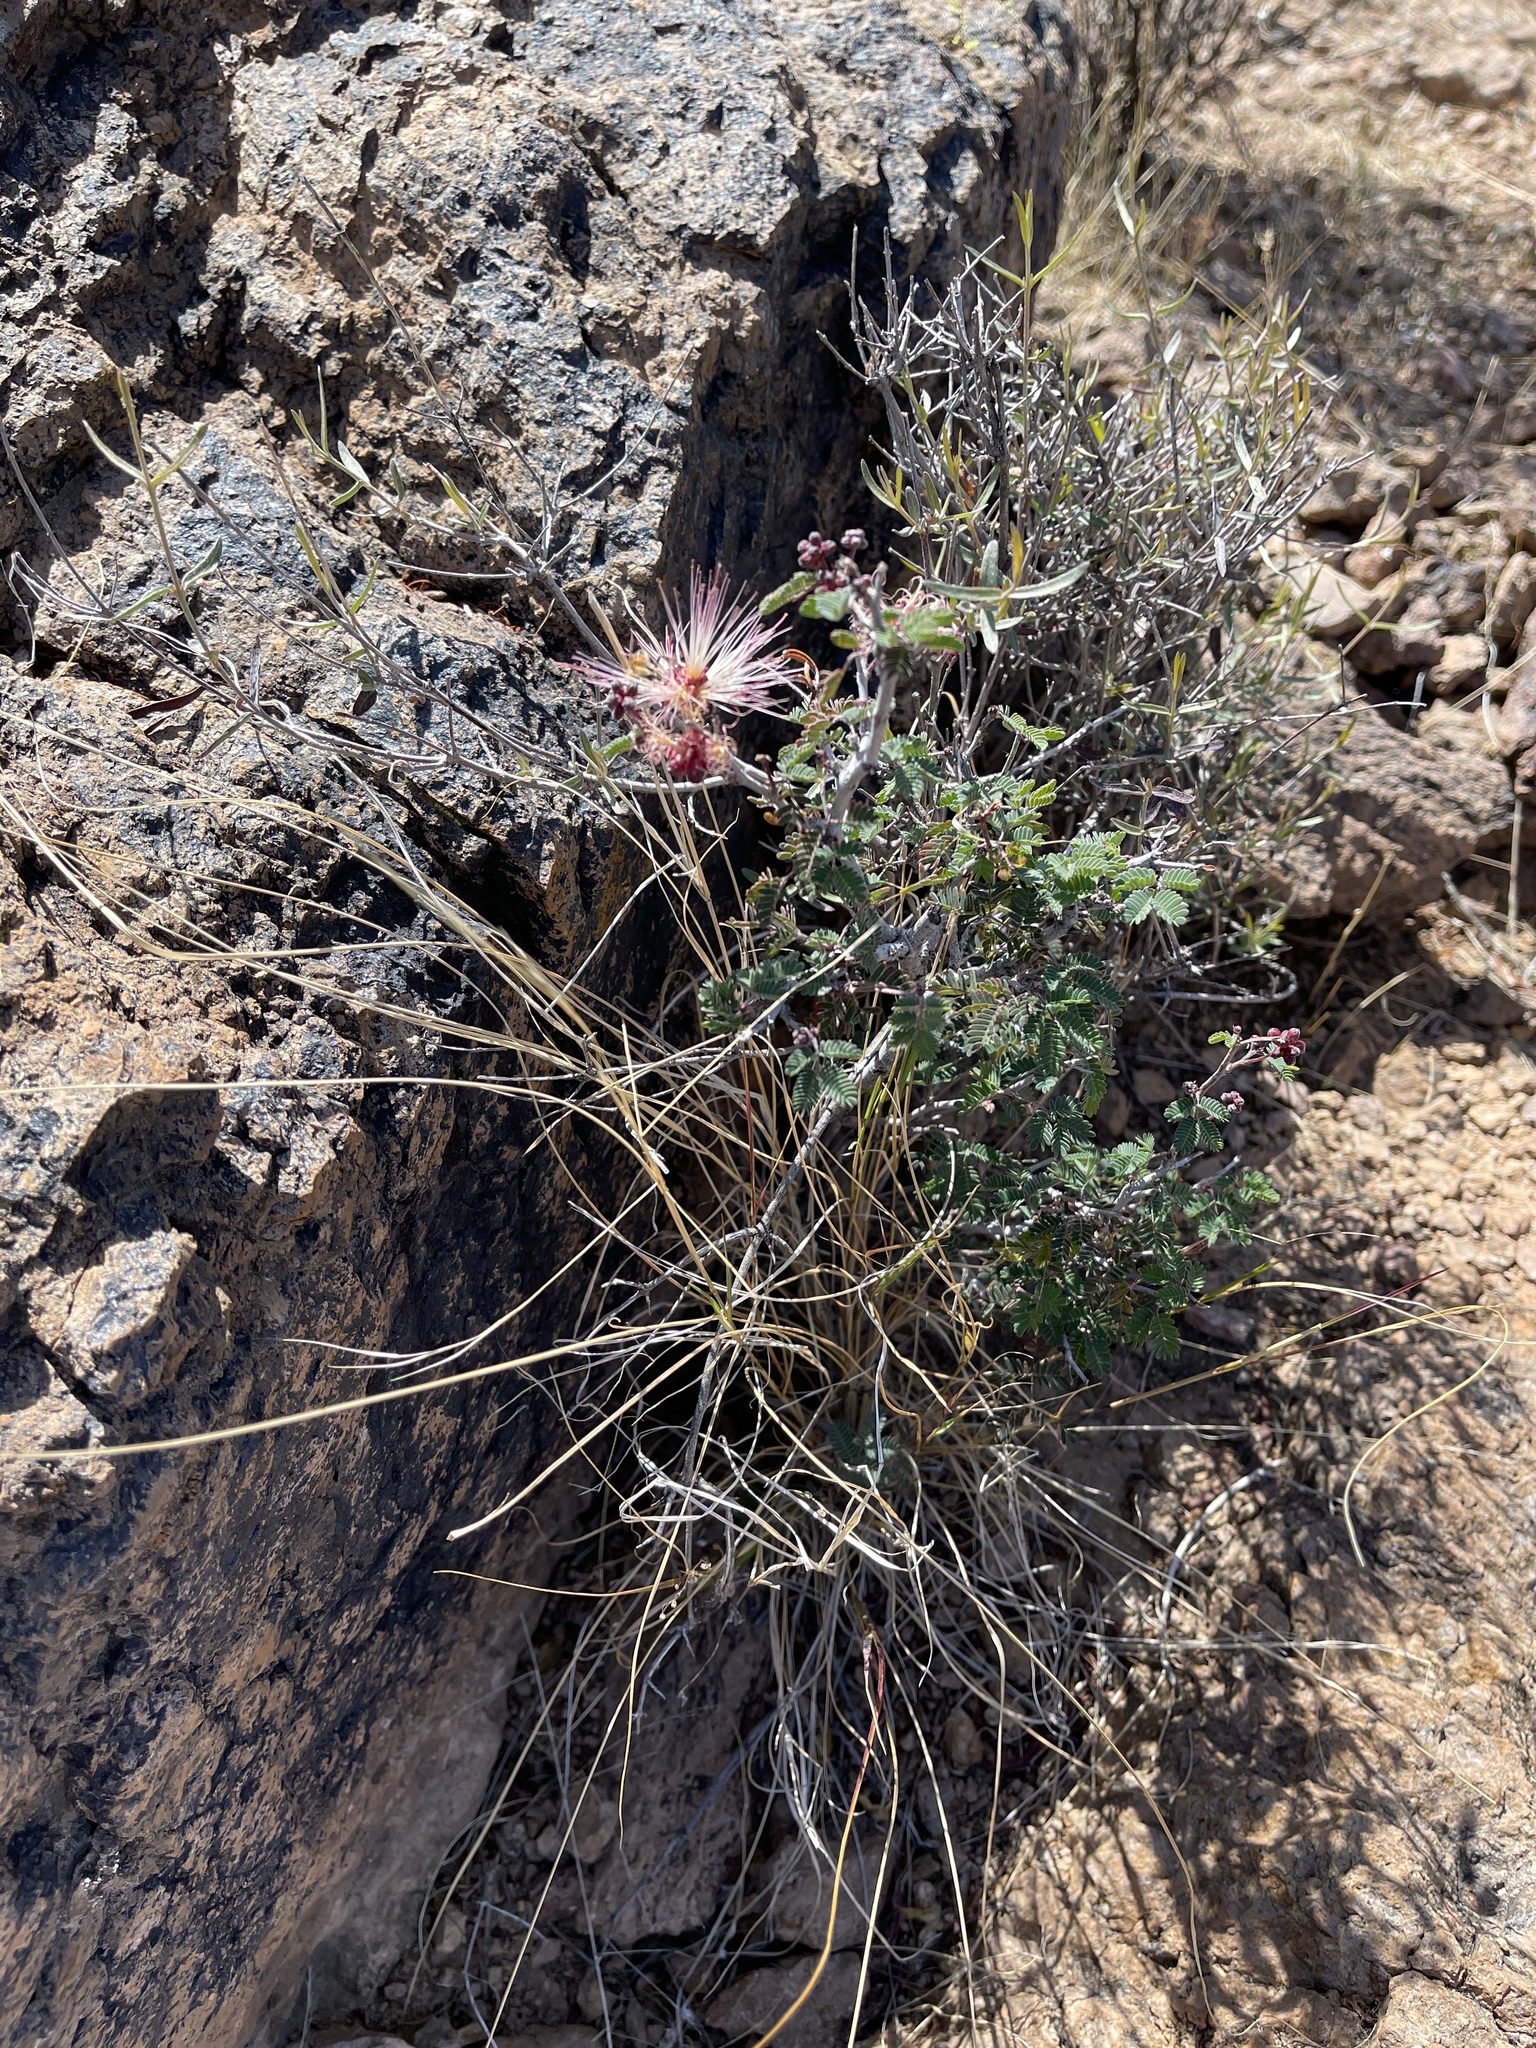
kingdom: Plantae
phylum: Tracheophyta
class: Magnoliopsida
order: Fabales
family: Fabaceae
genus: Calliandra
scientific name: Calliandra eriophylla
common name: Fairy-duster
